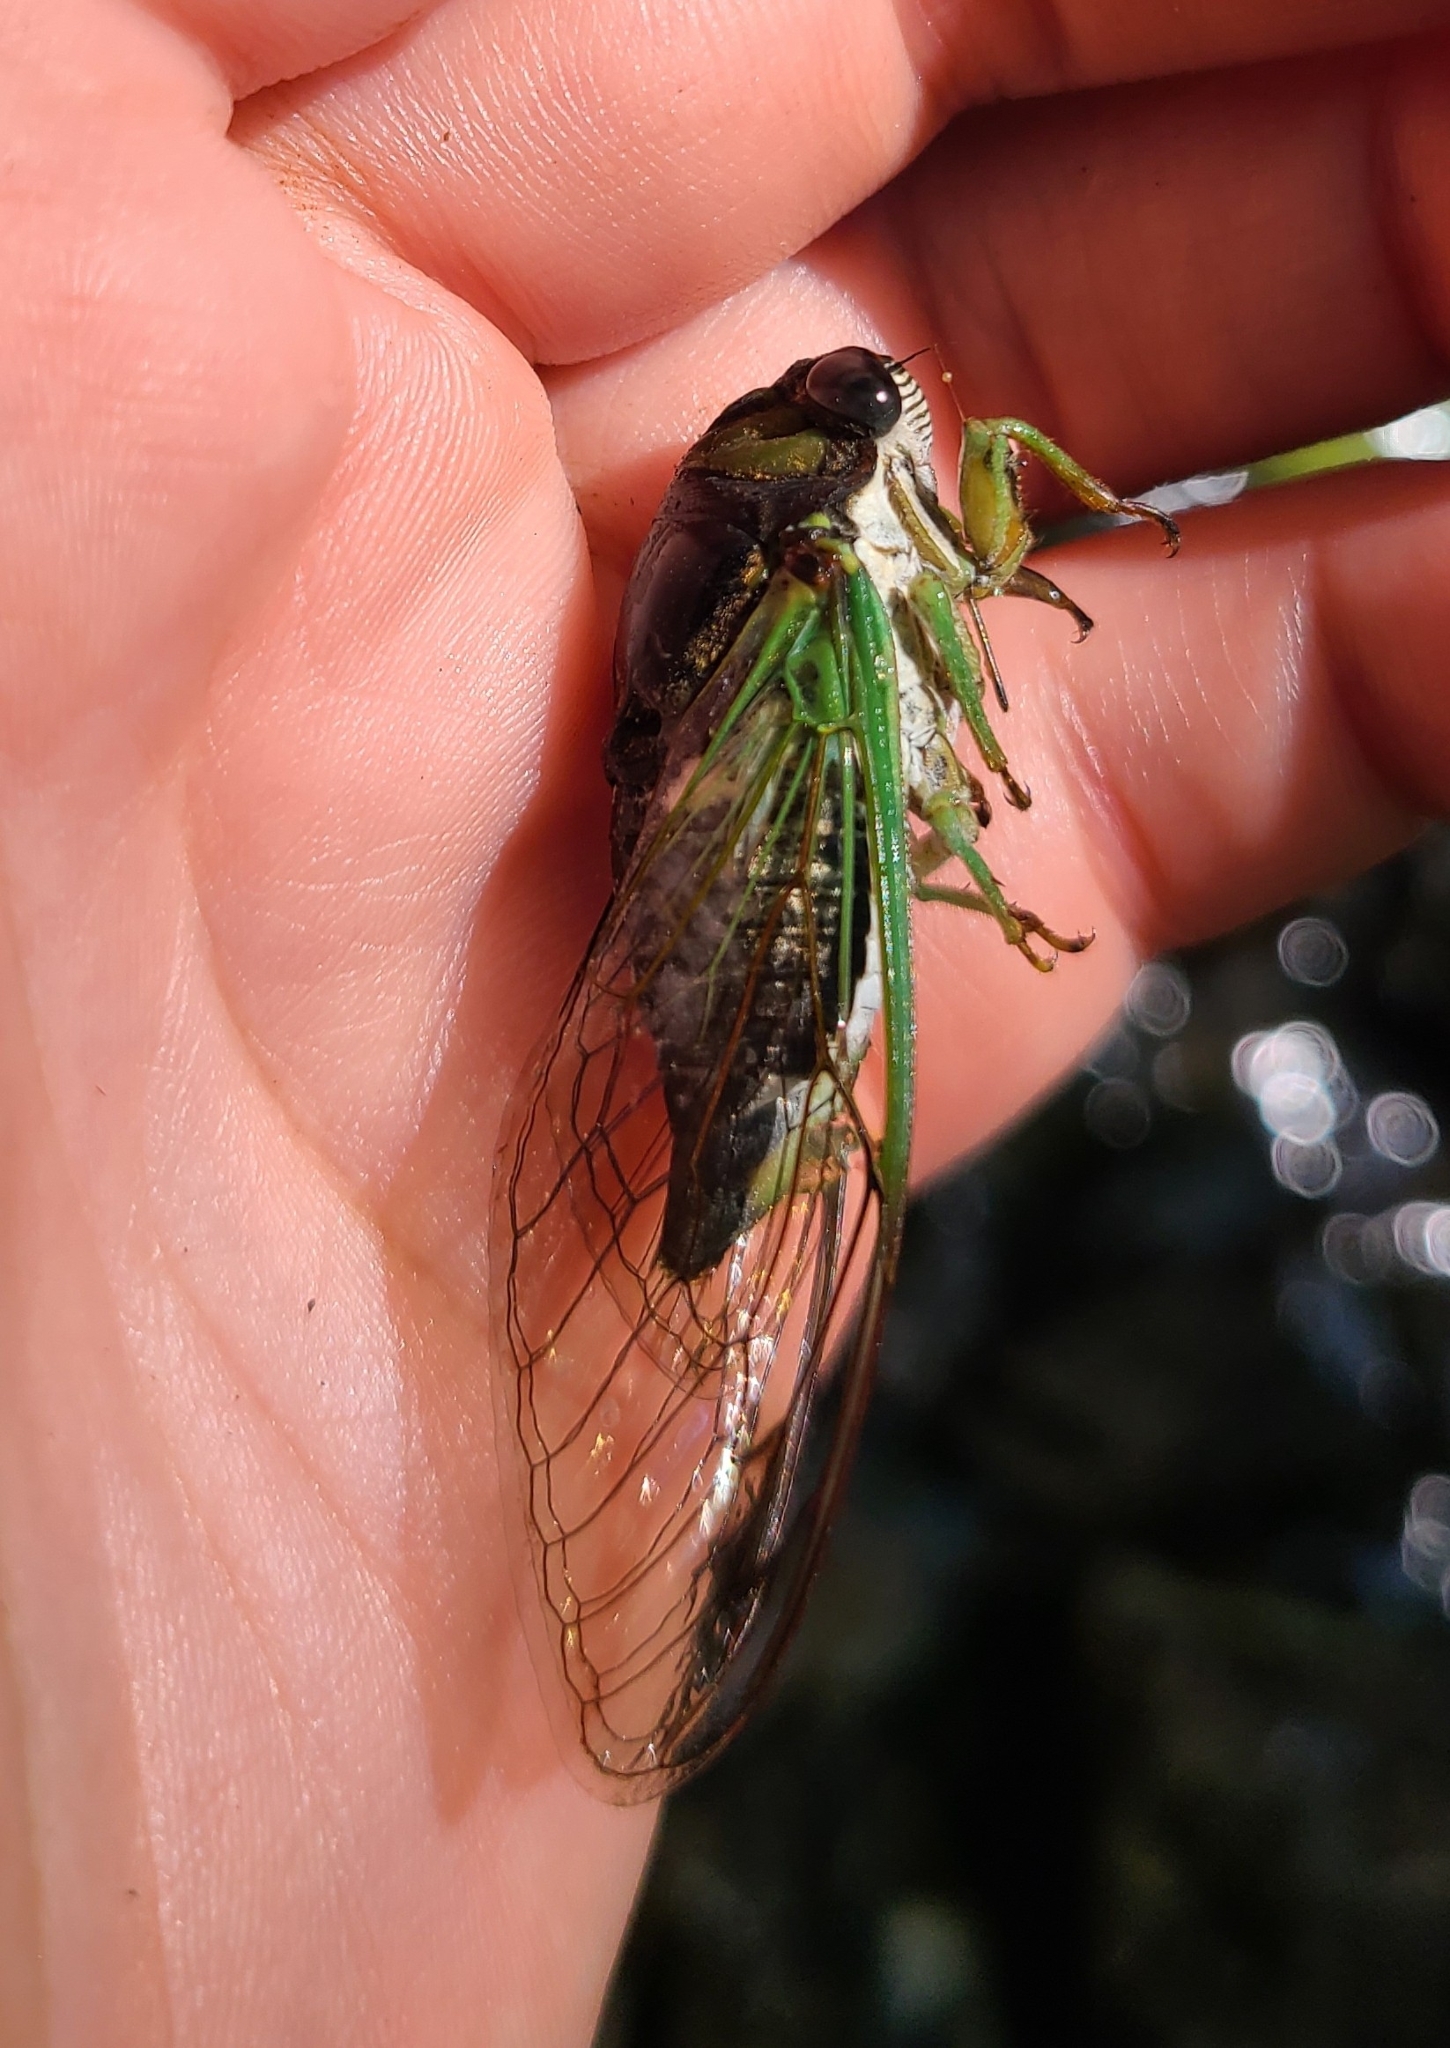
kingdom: Animalia
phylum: Arthropoda
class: Insecta
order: Hemiptera
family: Cicadidae
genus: Neotibicen
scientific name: Neotibicen tibicen
